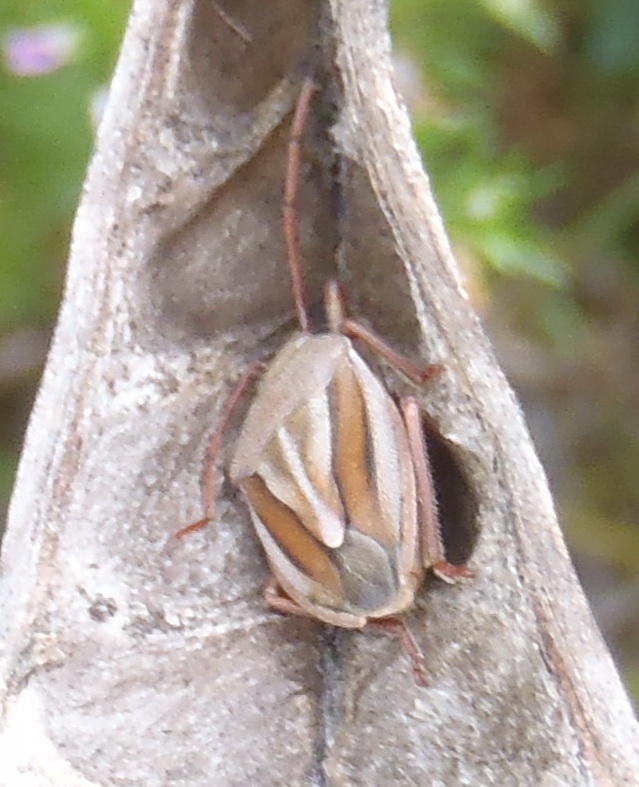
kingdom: Animalia
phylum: Arthropoda
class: Insecta
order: Hemiptera
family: Pentatomidae
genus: Theloris
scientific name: Theloris costata
